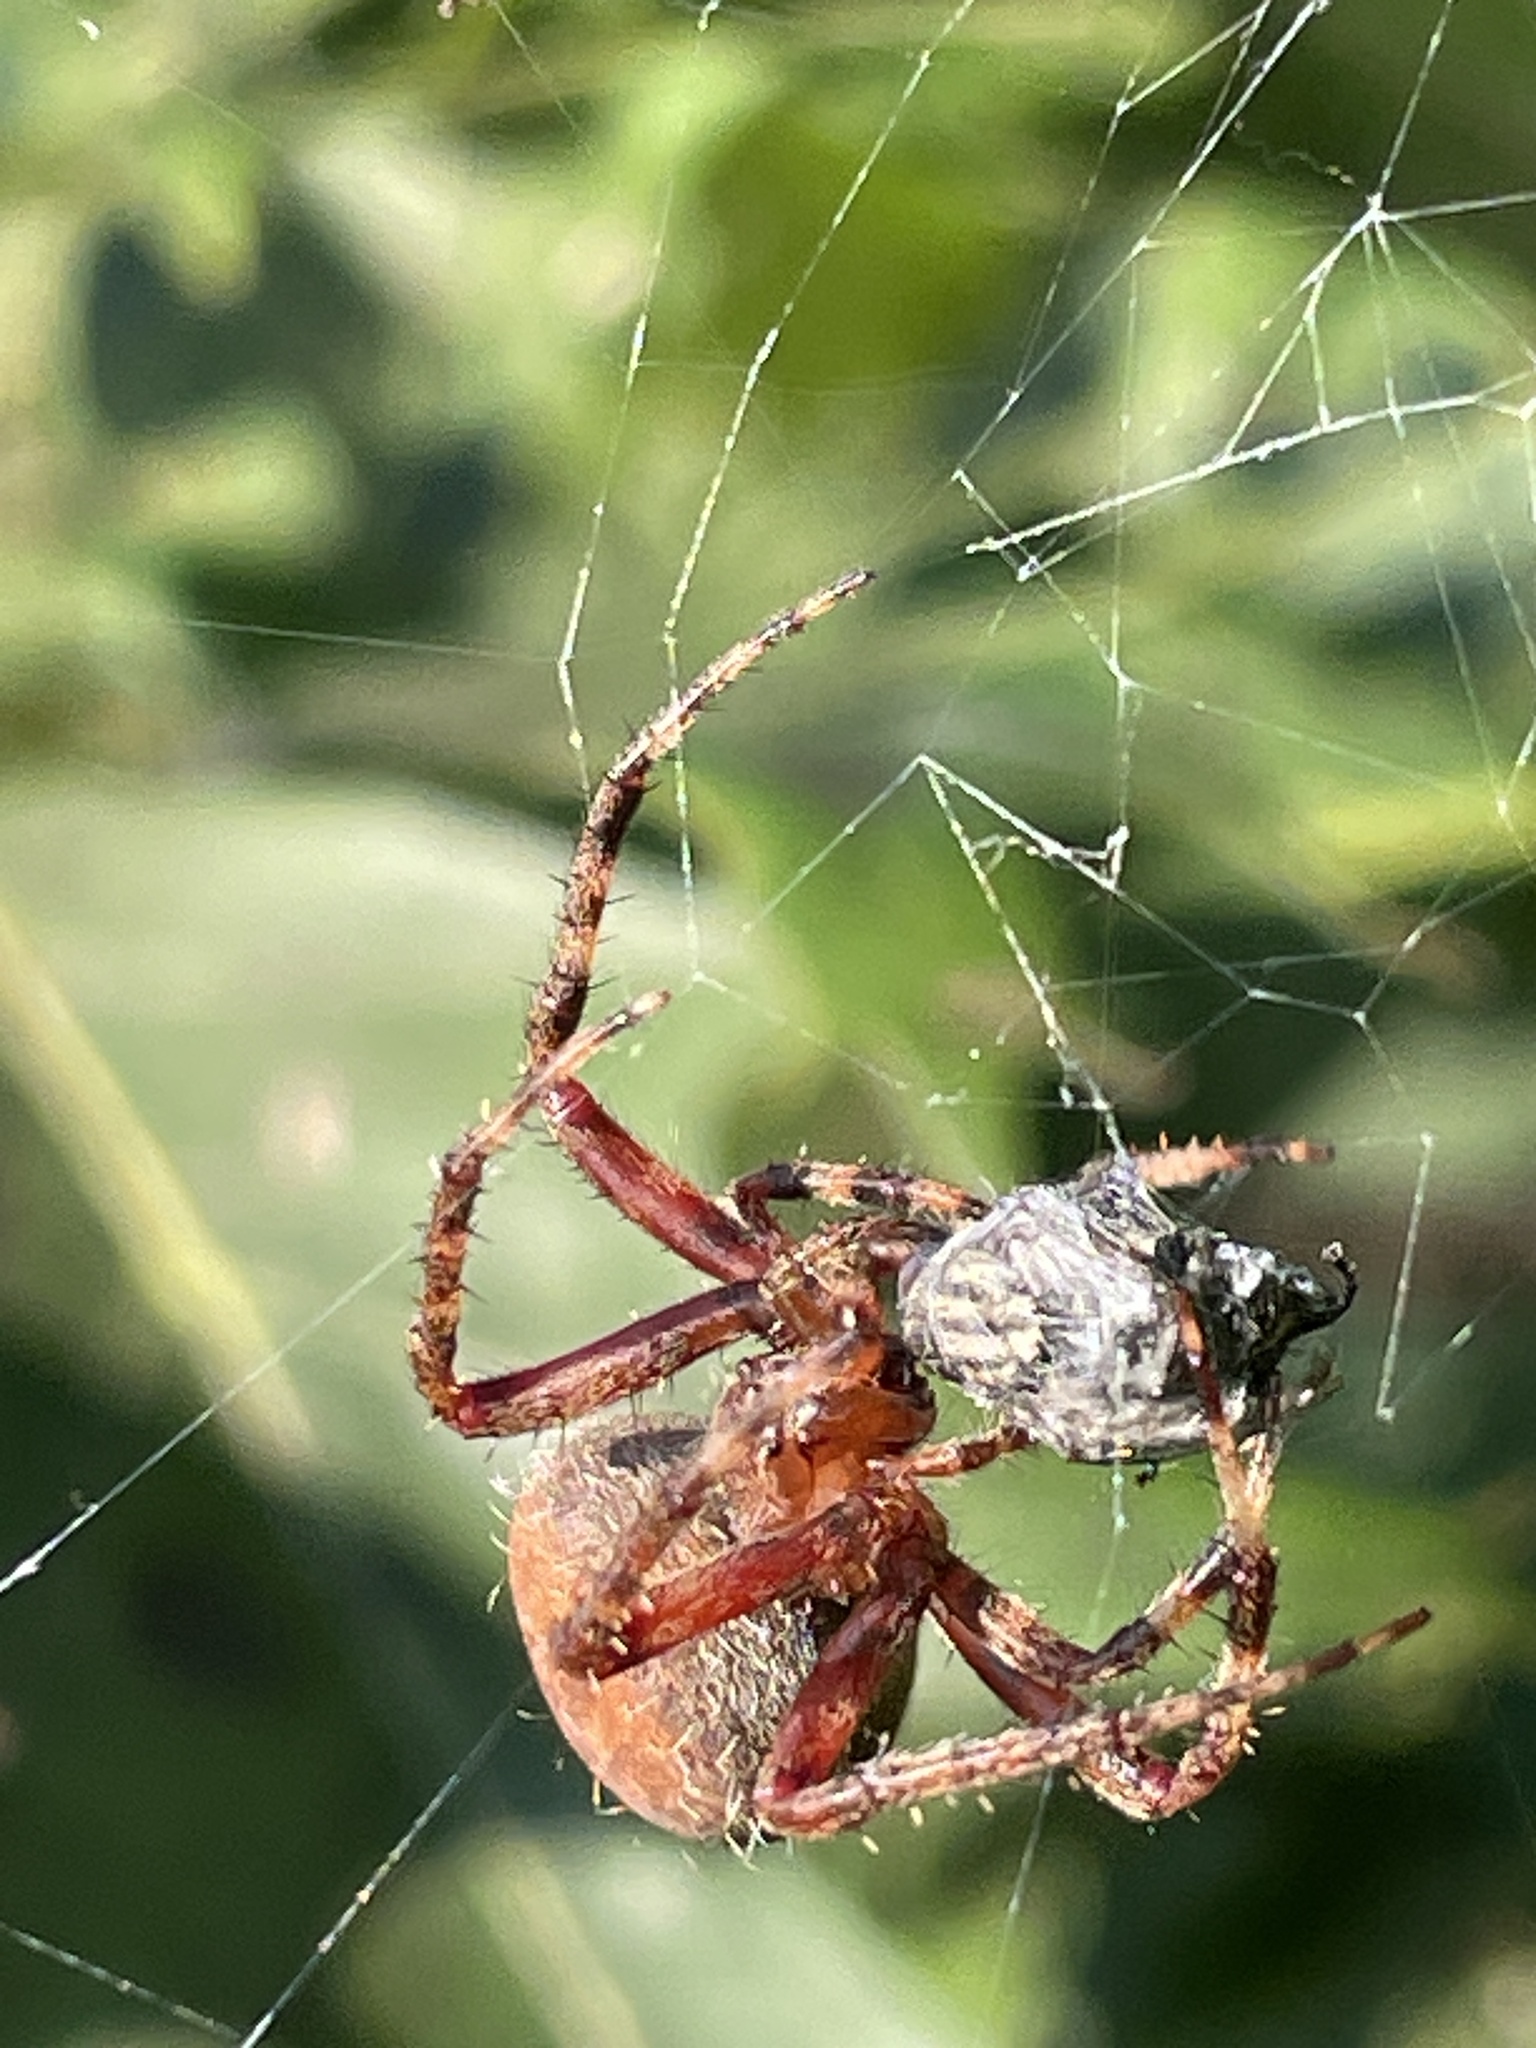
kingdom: Animalia
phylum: Arthropoda
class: Arachnida
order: Araneae
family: Araneidae
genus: Neoscona
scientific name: Neoscona crucifera
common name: Spotted orbweaver
